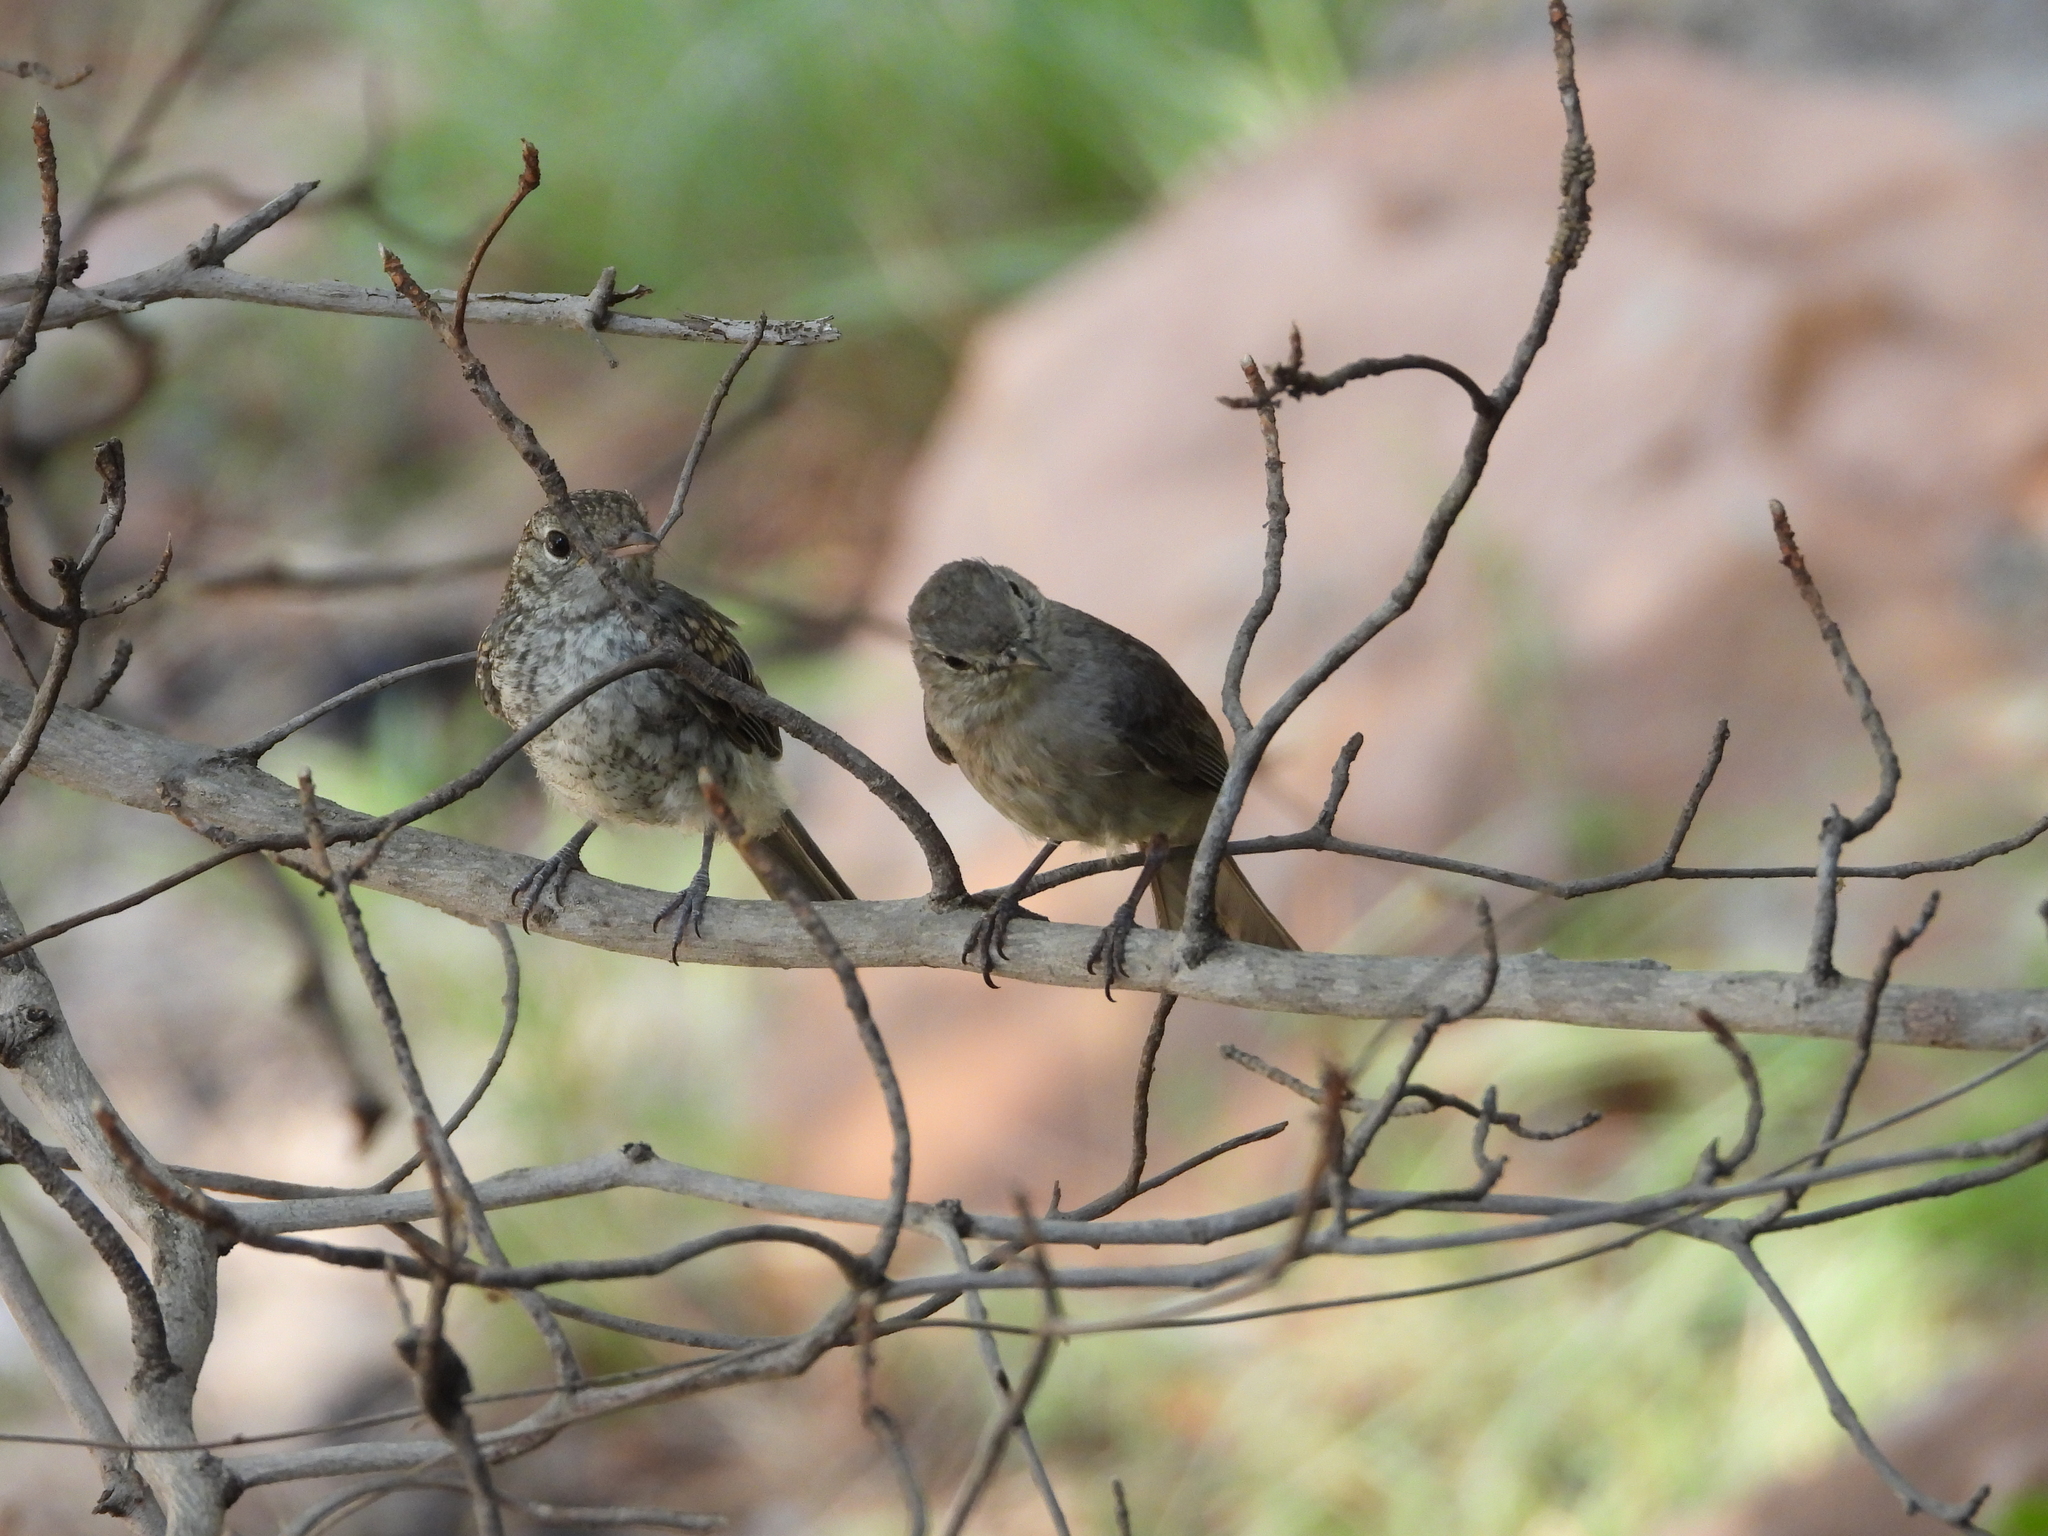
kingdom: Animalia
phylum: Chordata
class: Aves
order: Passeriformes
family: Muscicapidae
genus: Muscicapa
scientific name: Muscicapa striata
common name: Spotted flycatcher
